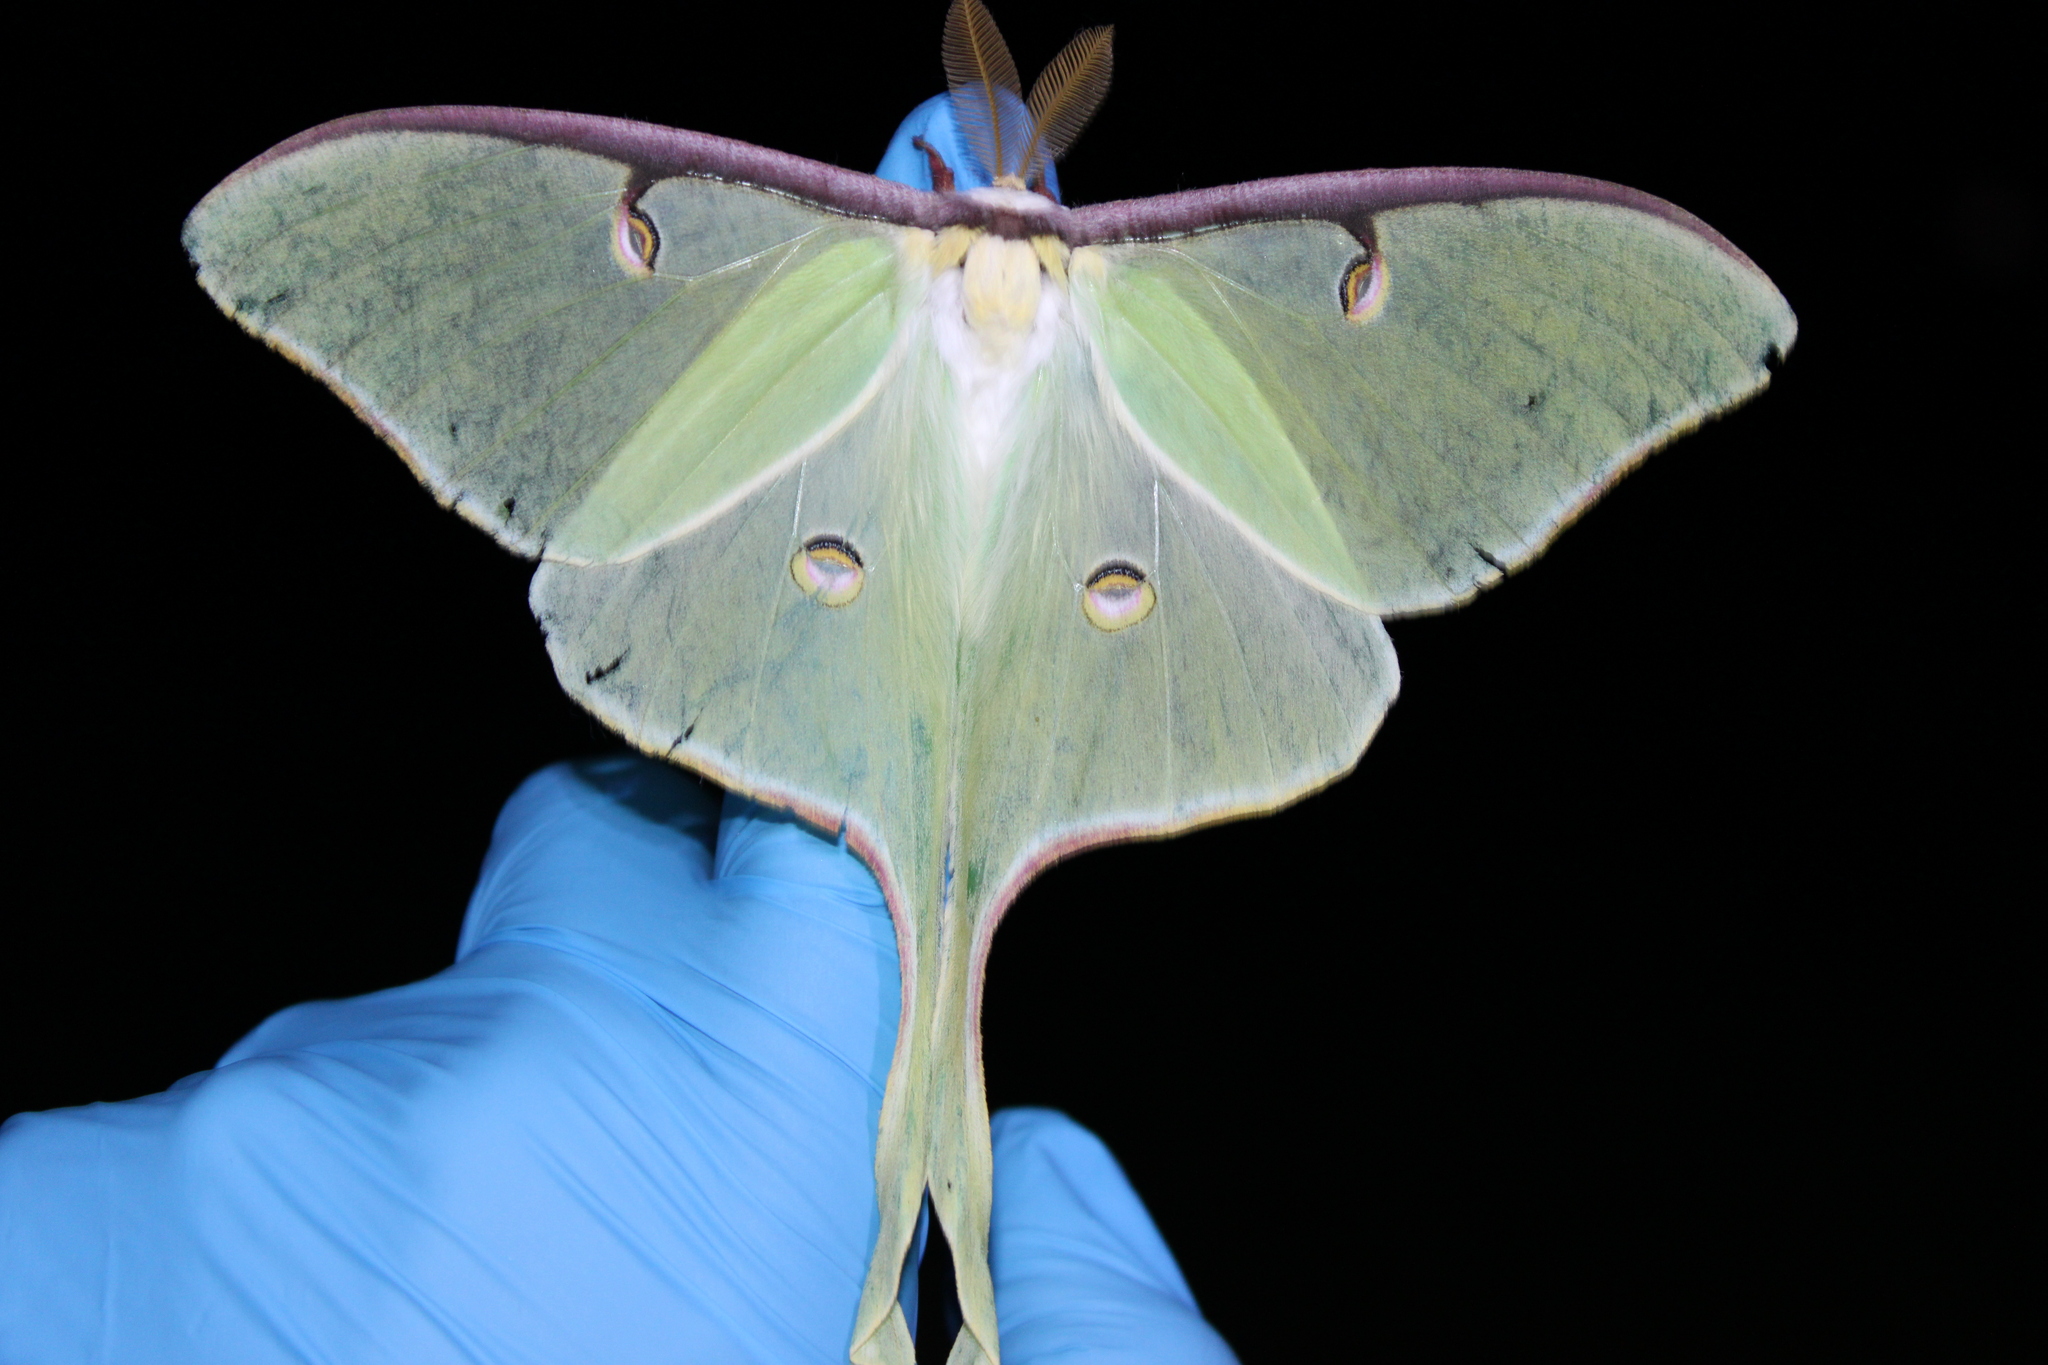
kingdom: Animalia
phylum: Arthropoda
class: Insecta
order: Lepidoptera
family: Saturniidae
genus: Actias
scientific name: Actias luna
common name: Luna moth
